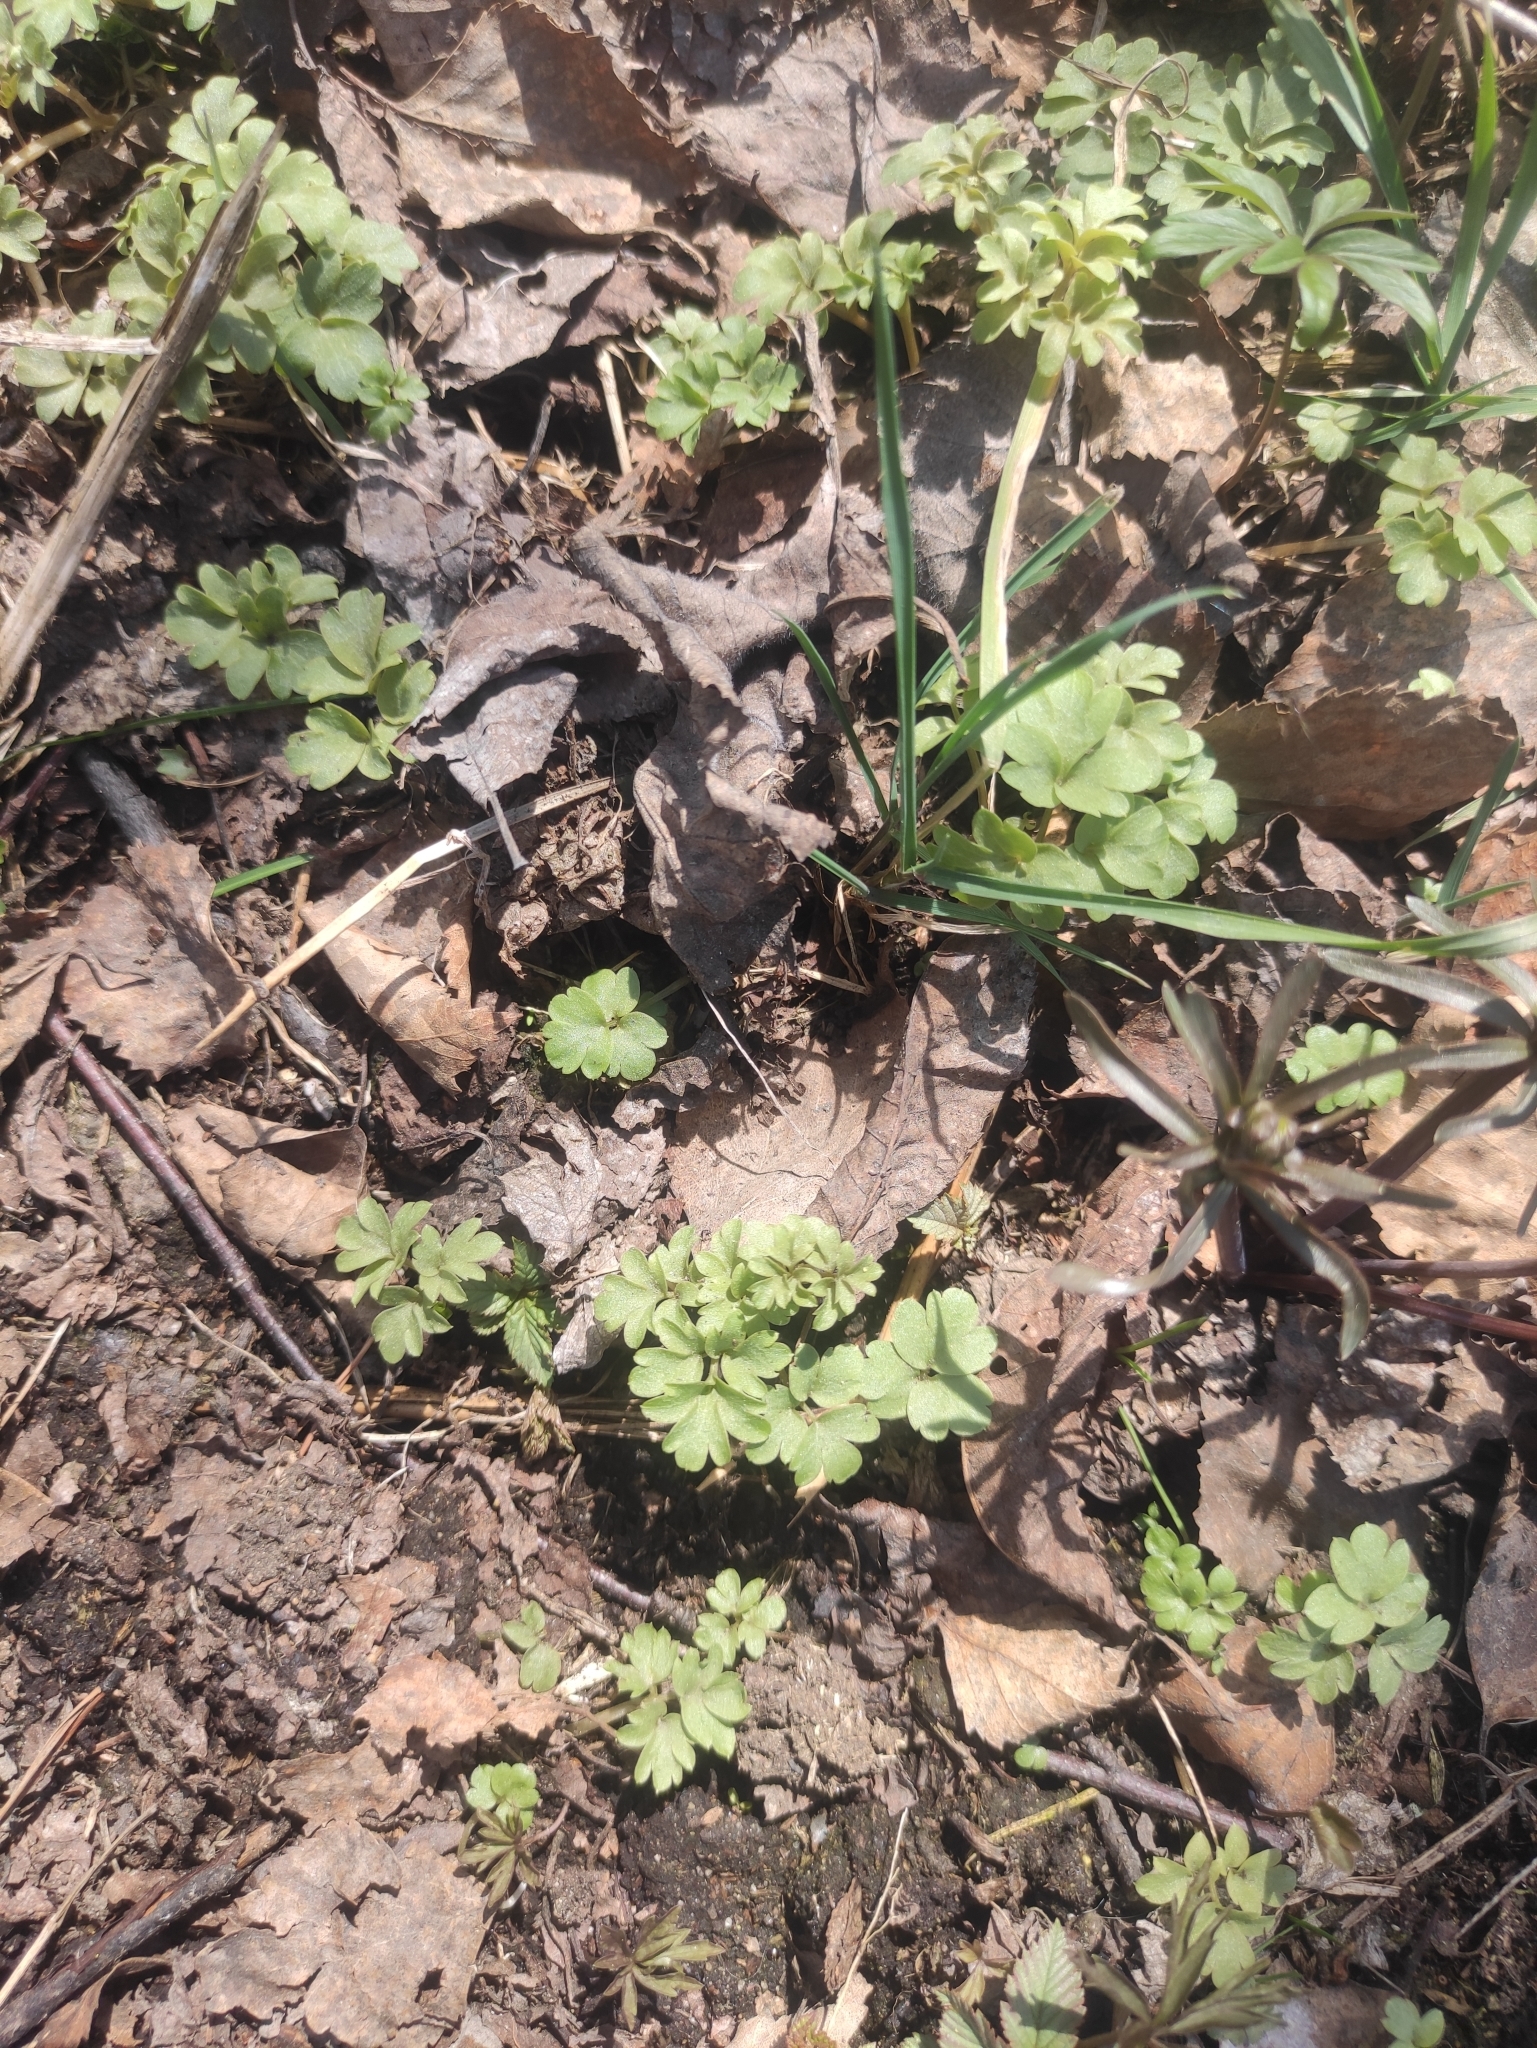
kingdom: Plantae
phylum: Tracheophyta
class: Magnoliopsida
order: Dipsacales
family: Viburnaceae
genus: Adoxa
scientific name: Adoxa moschatellina
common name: Moschatel
